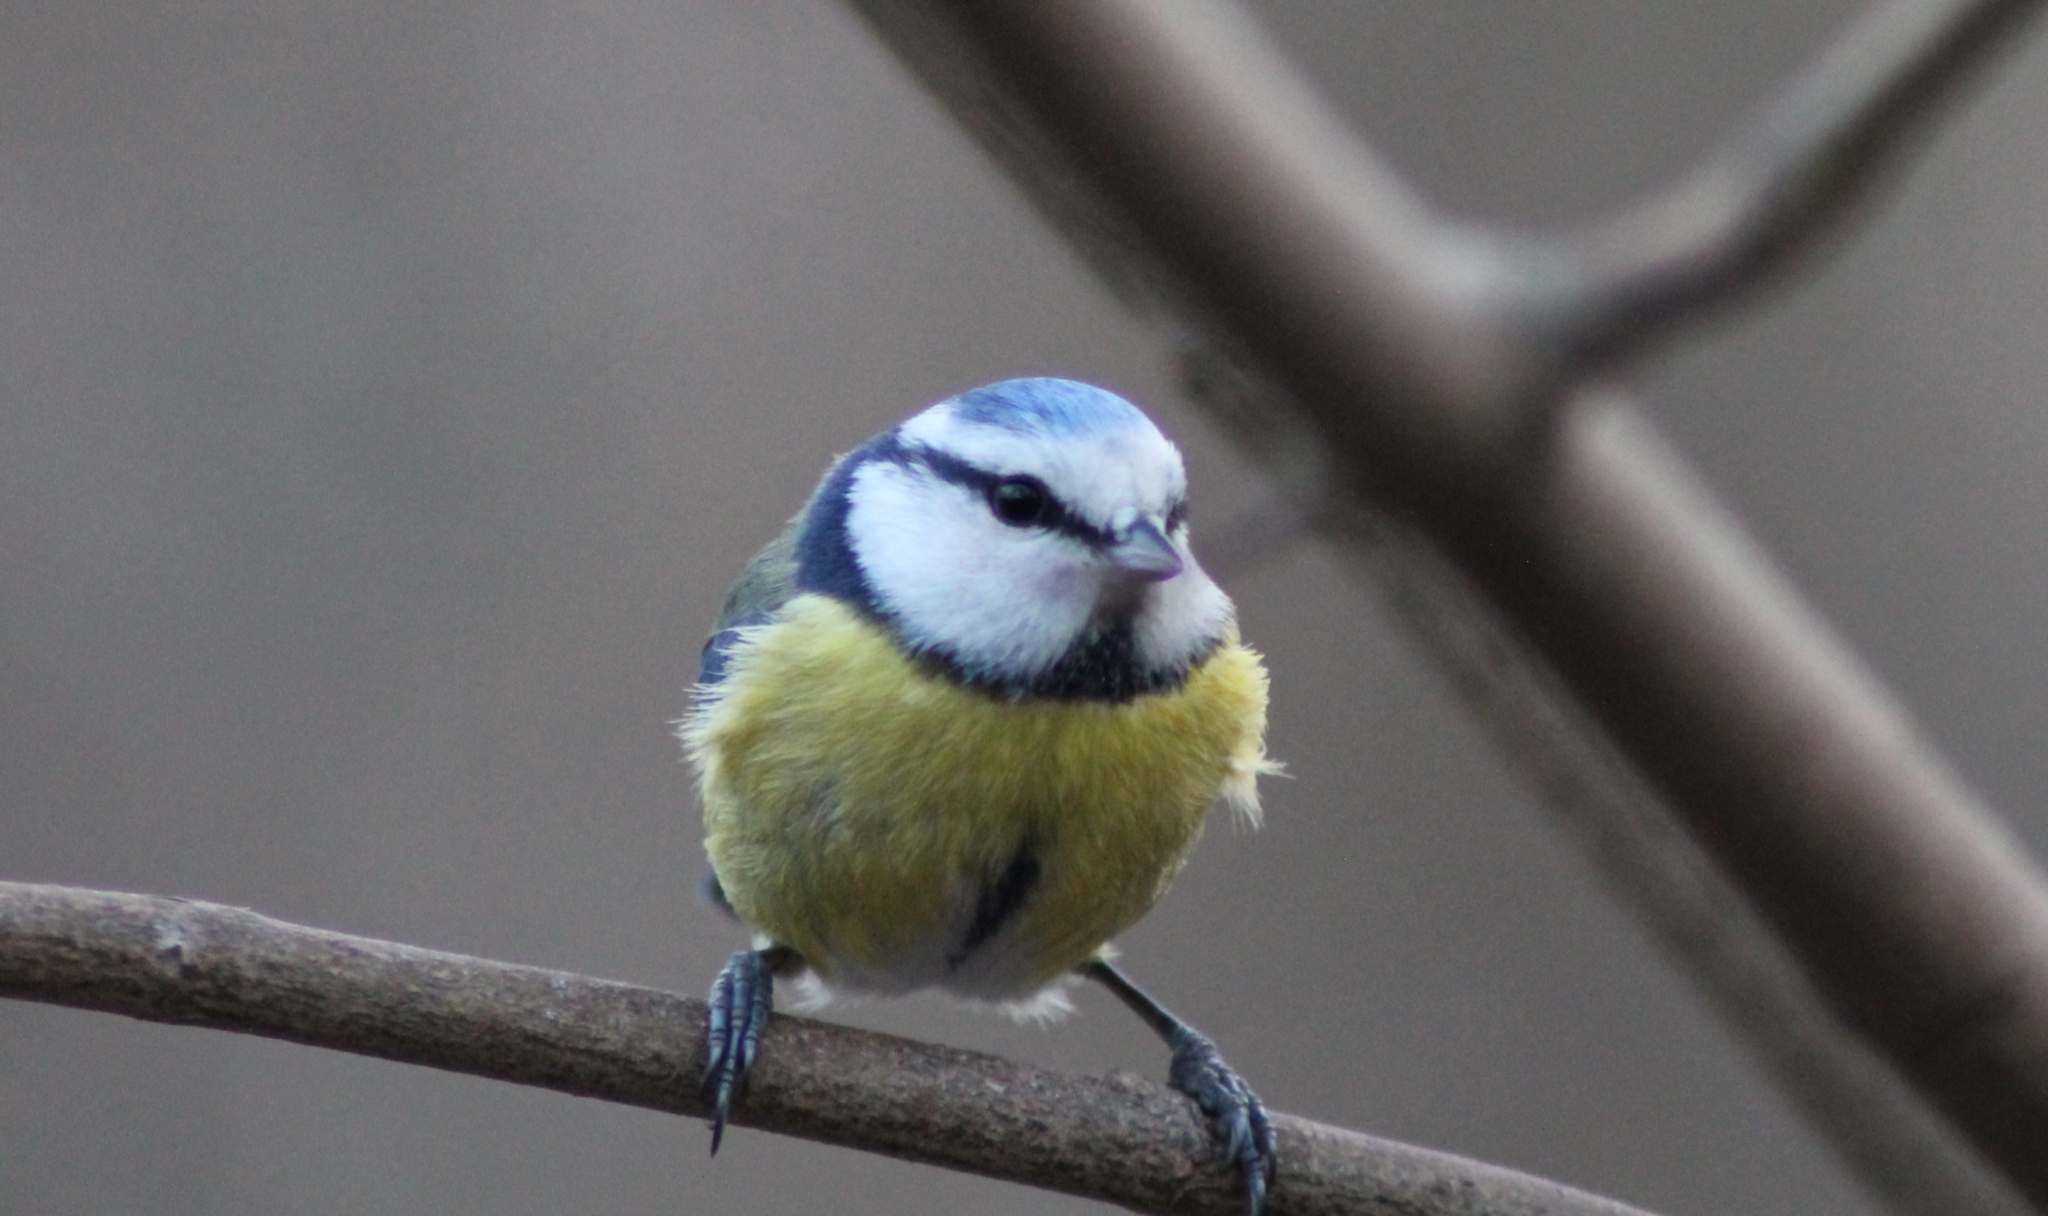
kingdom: Animalia
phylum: Chordata
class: Aves
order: Passeriformes
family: Paridae
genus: Cyanistes
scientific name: Cyanistes caeruleus
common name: Eurasian blue tit
